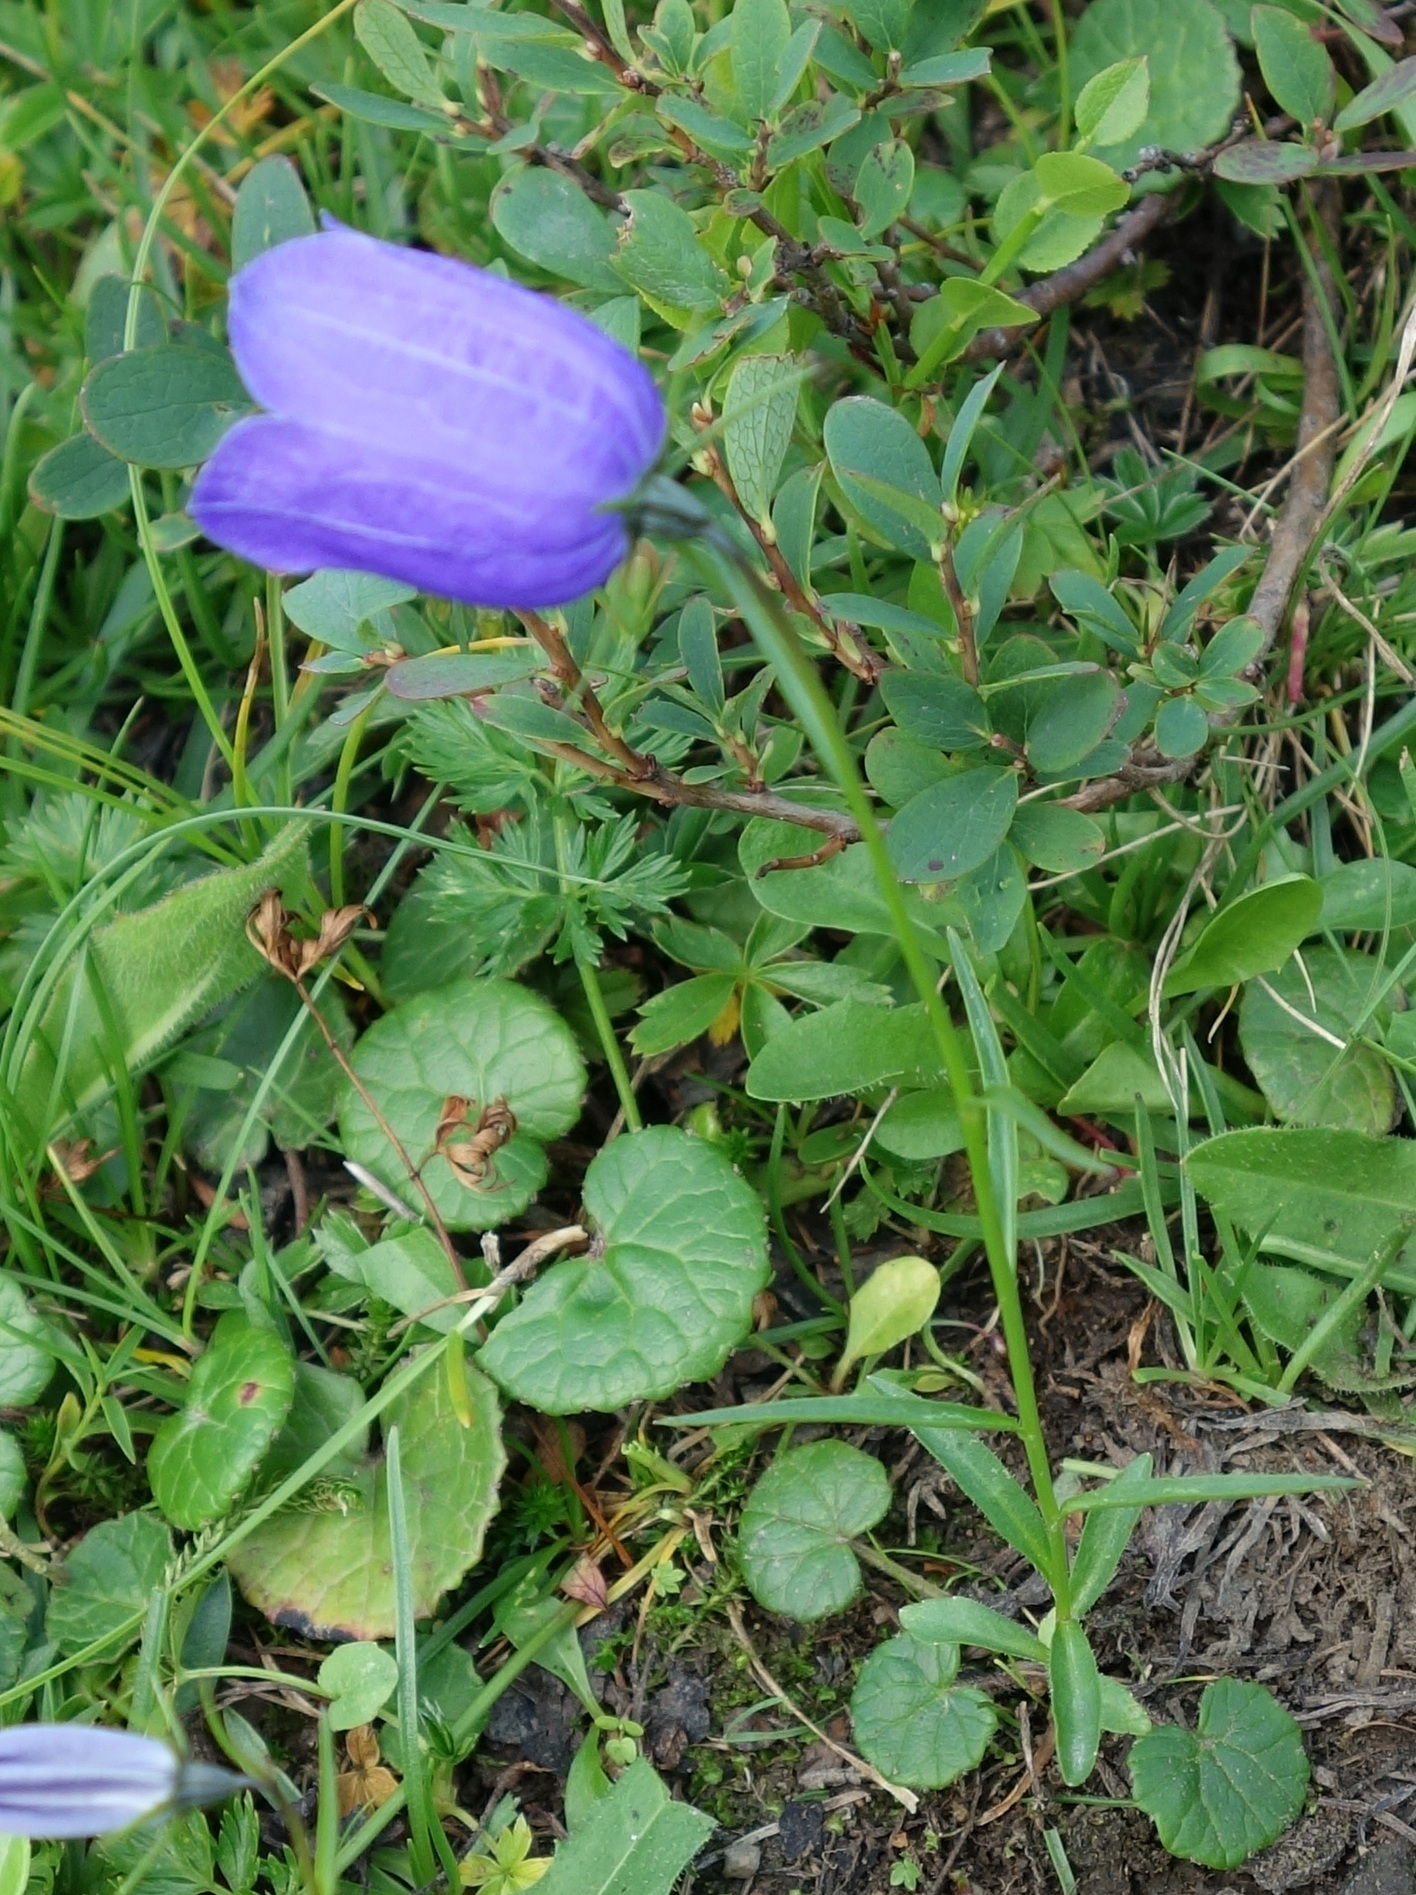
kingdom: Plantae
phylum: Tracheophyta
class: Magnoliopsida
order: Asterales
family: Campanulaceae
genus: Campanula
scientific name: Campanula scheuchzeri
